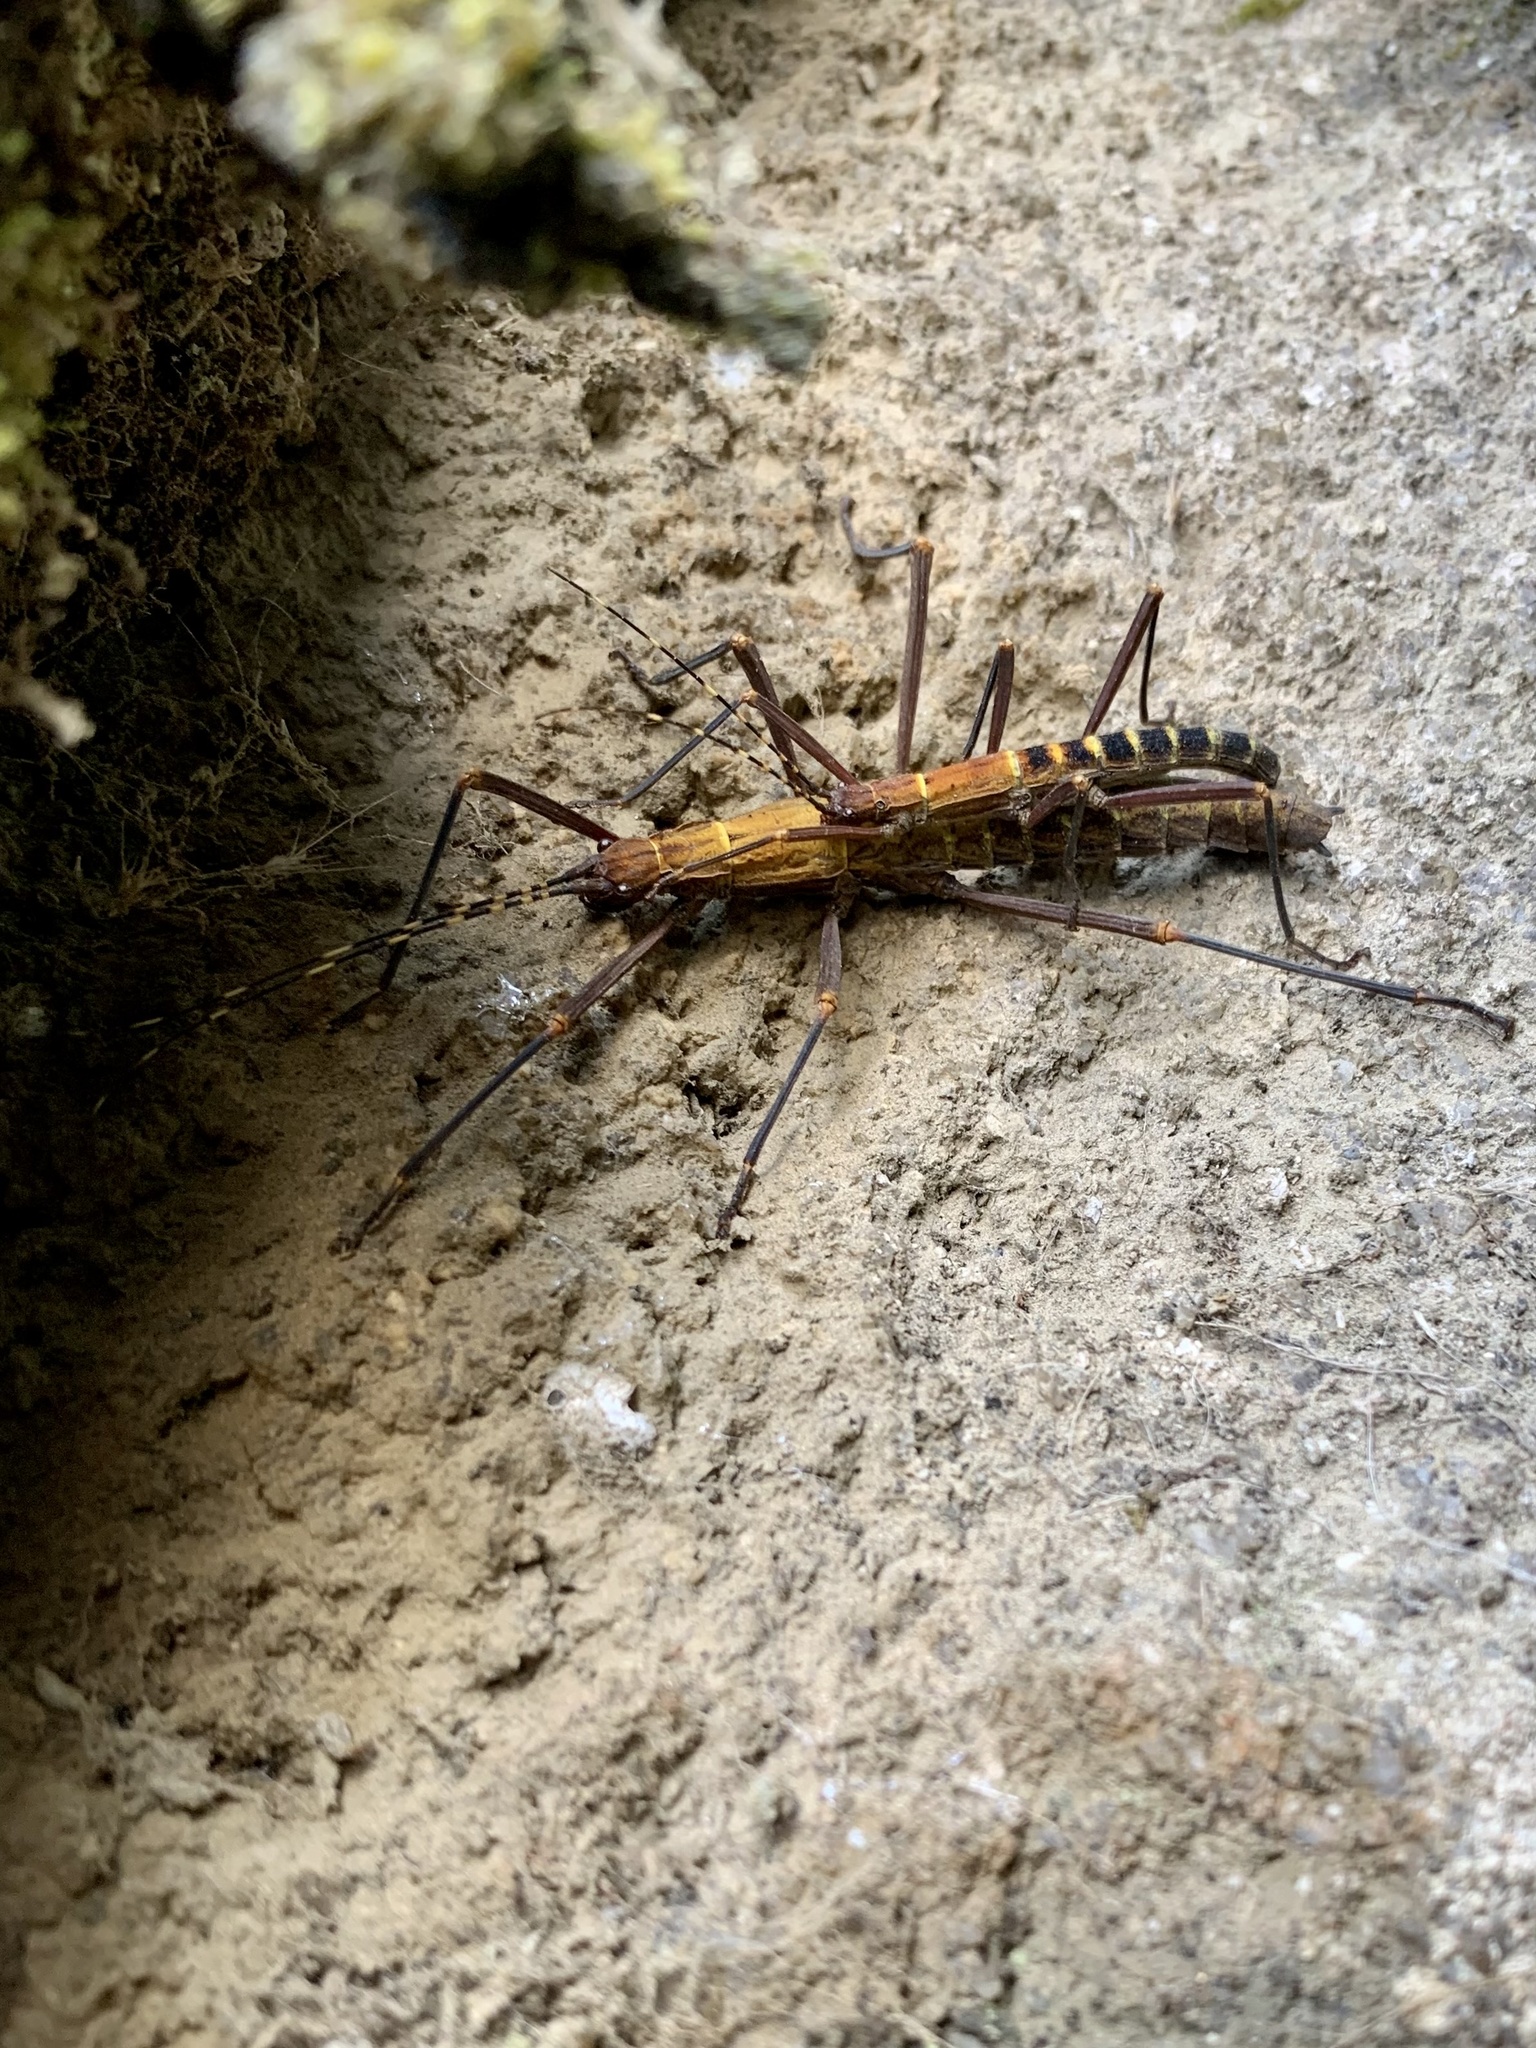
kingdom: Animalia
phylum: Arthropoda
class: Insecta
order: Phasmida
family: Pseudophasmatidae
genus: Peruphasma
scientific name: Peruphasma transversatum
